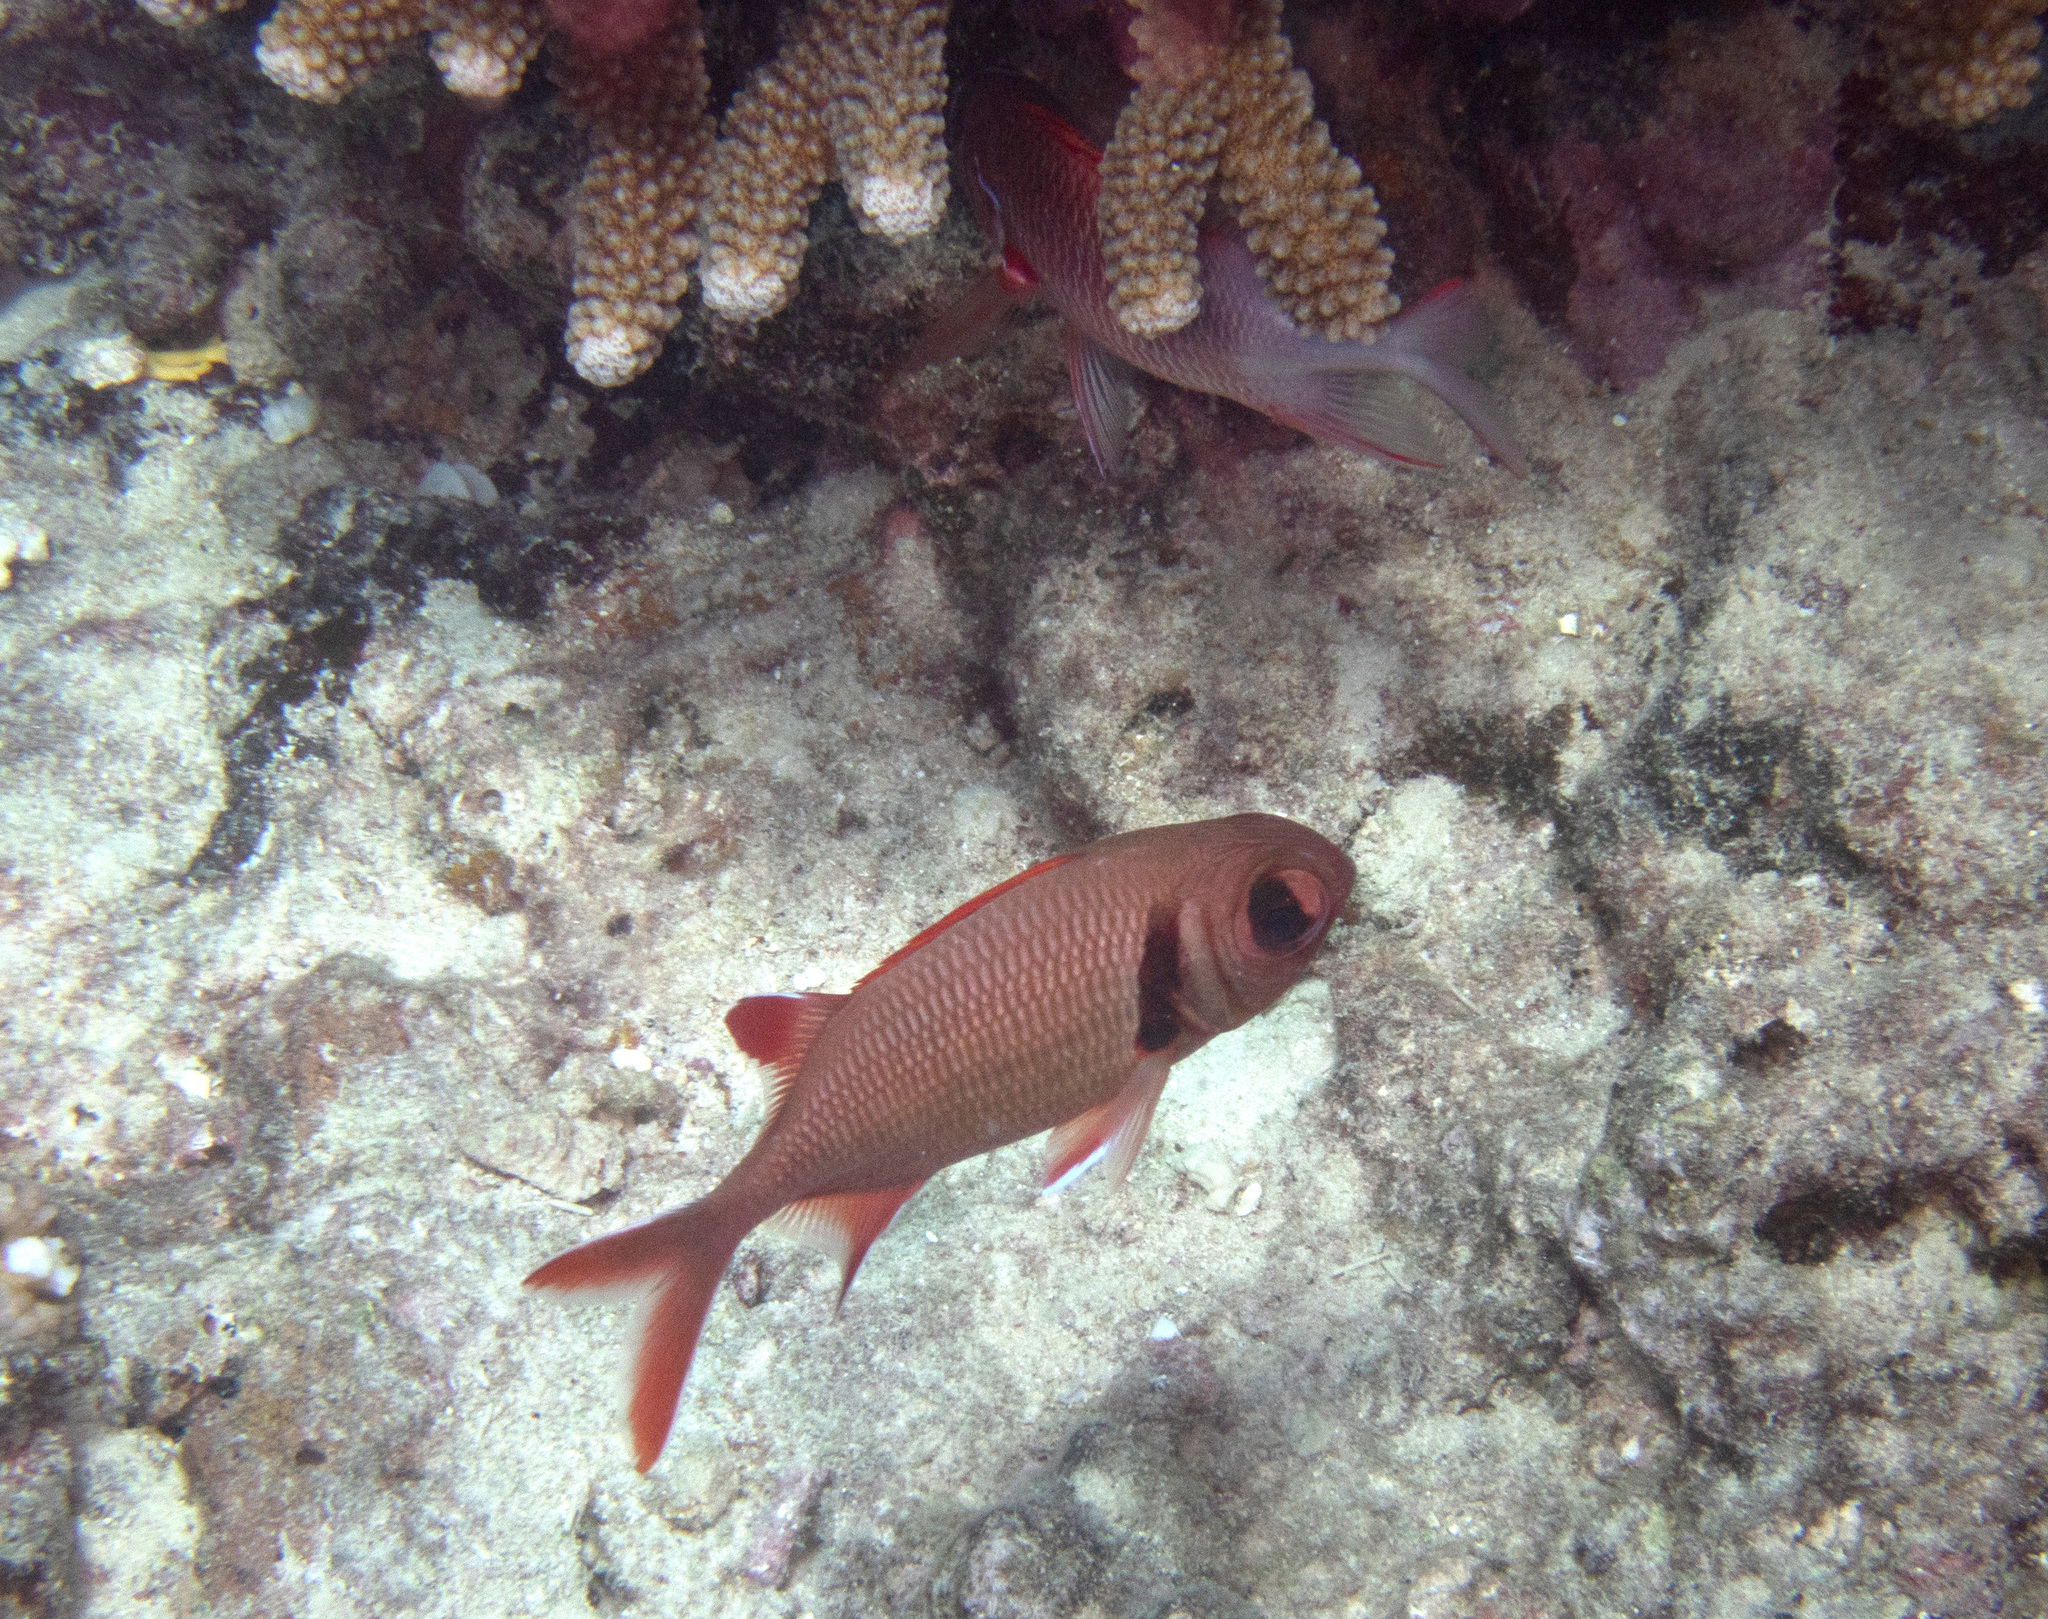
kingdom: Animalia
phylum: Chordata
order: Beryciformes
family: Holocentridae
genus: Myripristis
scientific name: Myripristis kuntee
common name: Epaulette soldierfish
